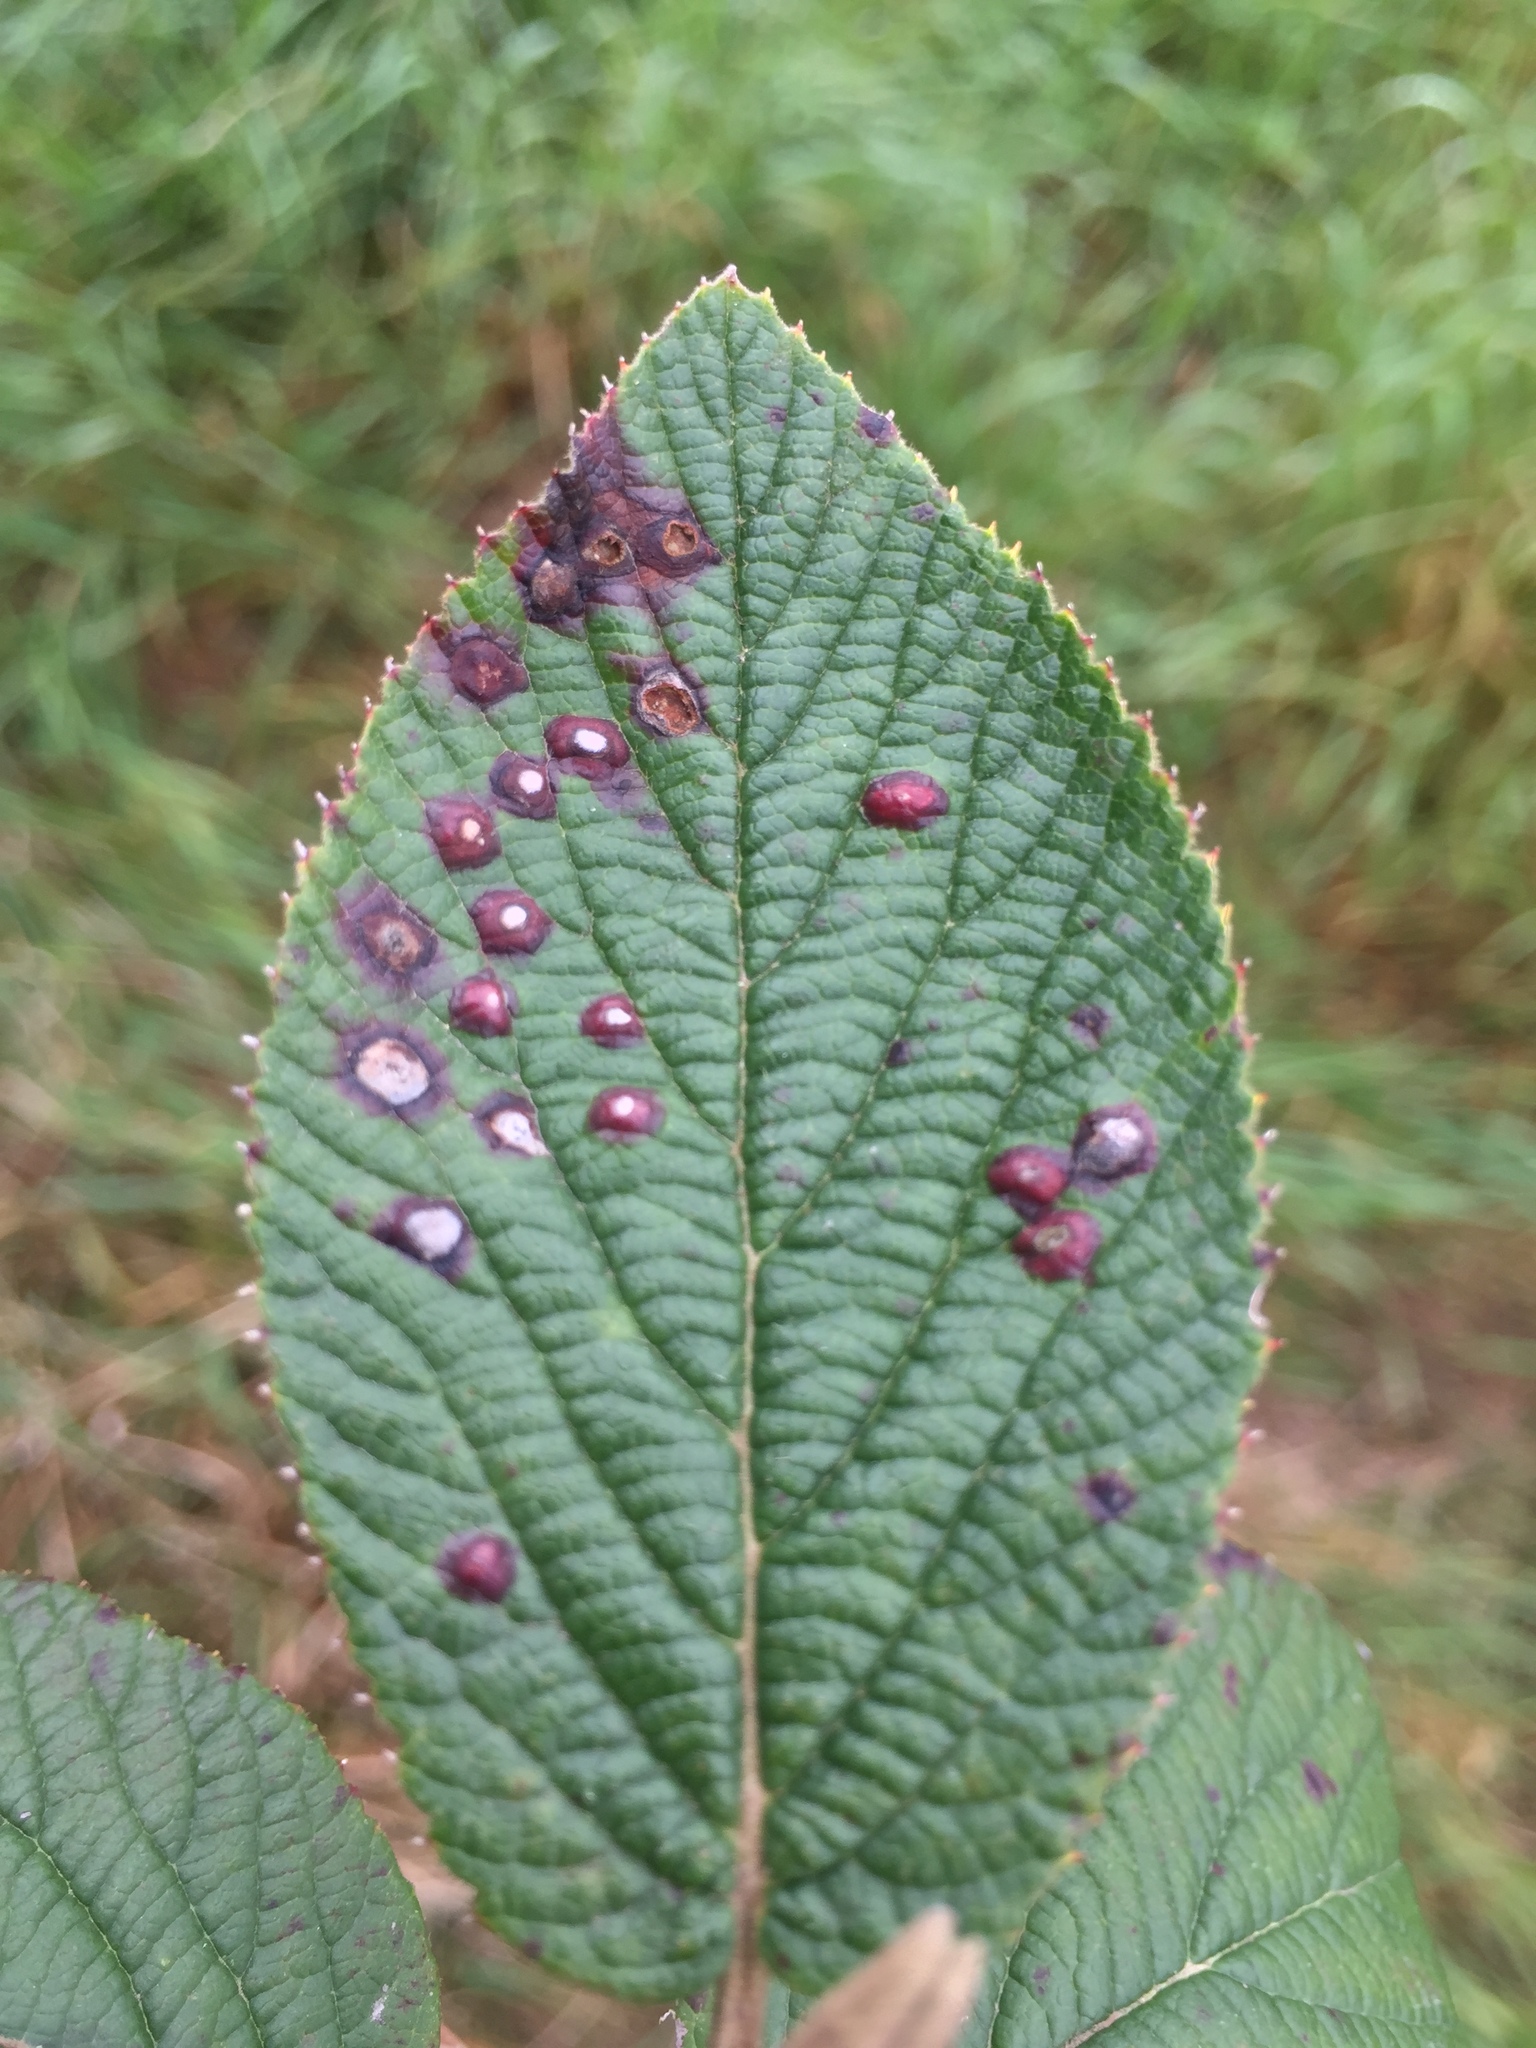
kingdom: Animalia
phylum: Arthropoda
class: Insecta
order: Diptera
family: Cecidomyiidae
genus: Sackenomyia
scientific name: Sackenomyia reaumurii
